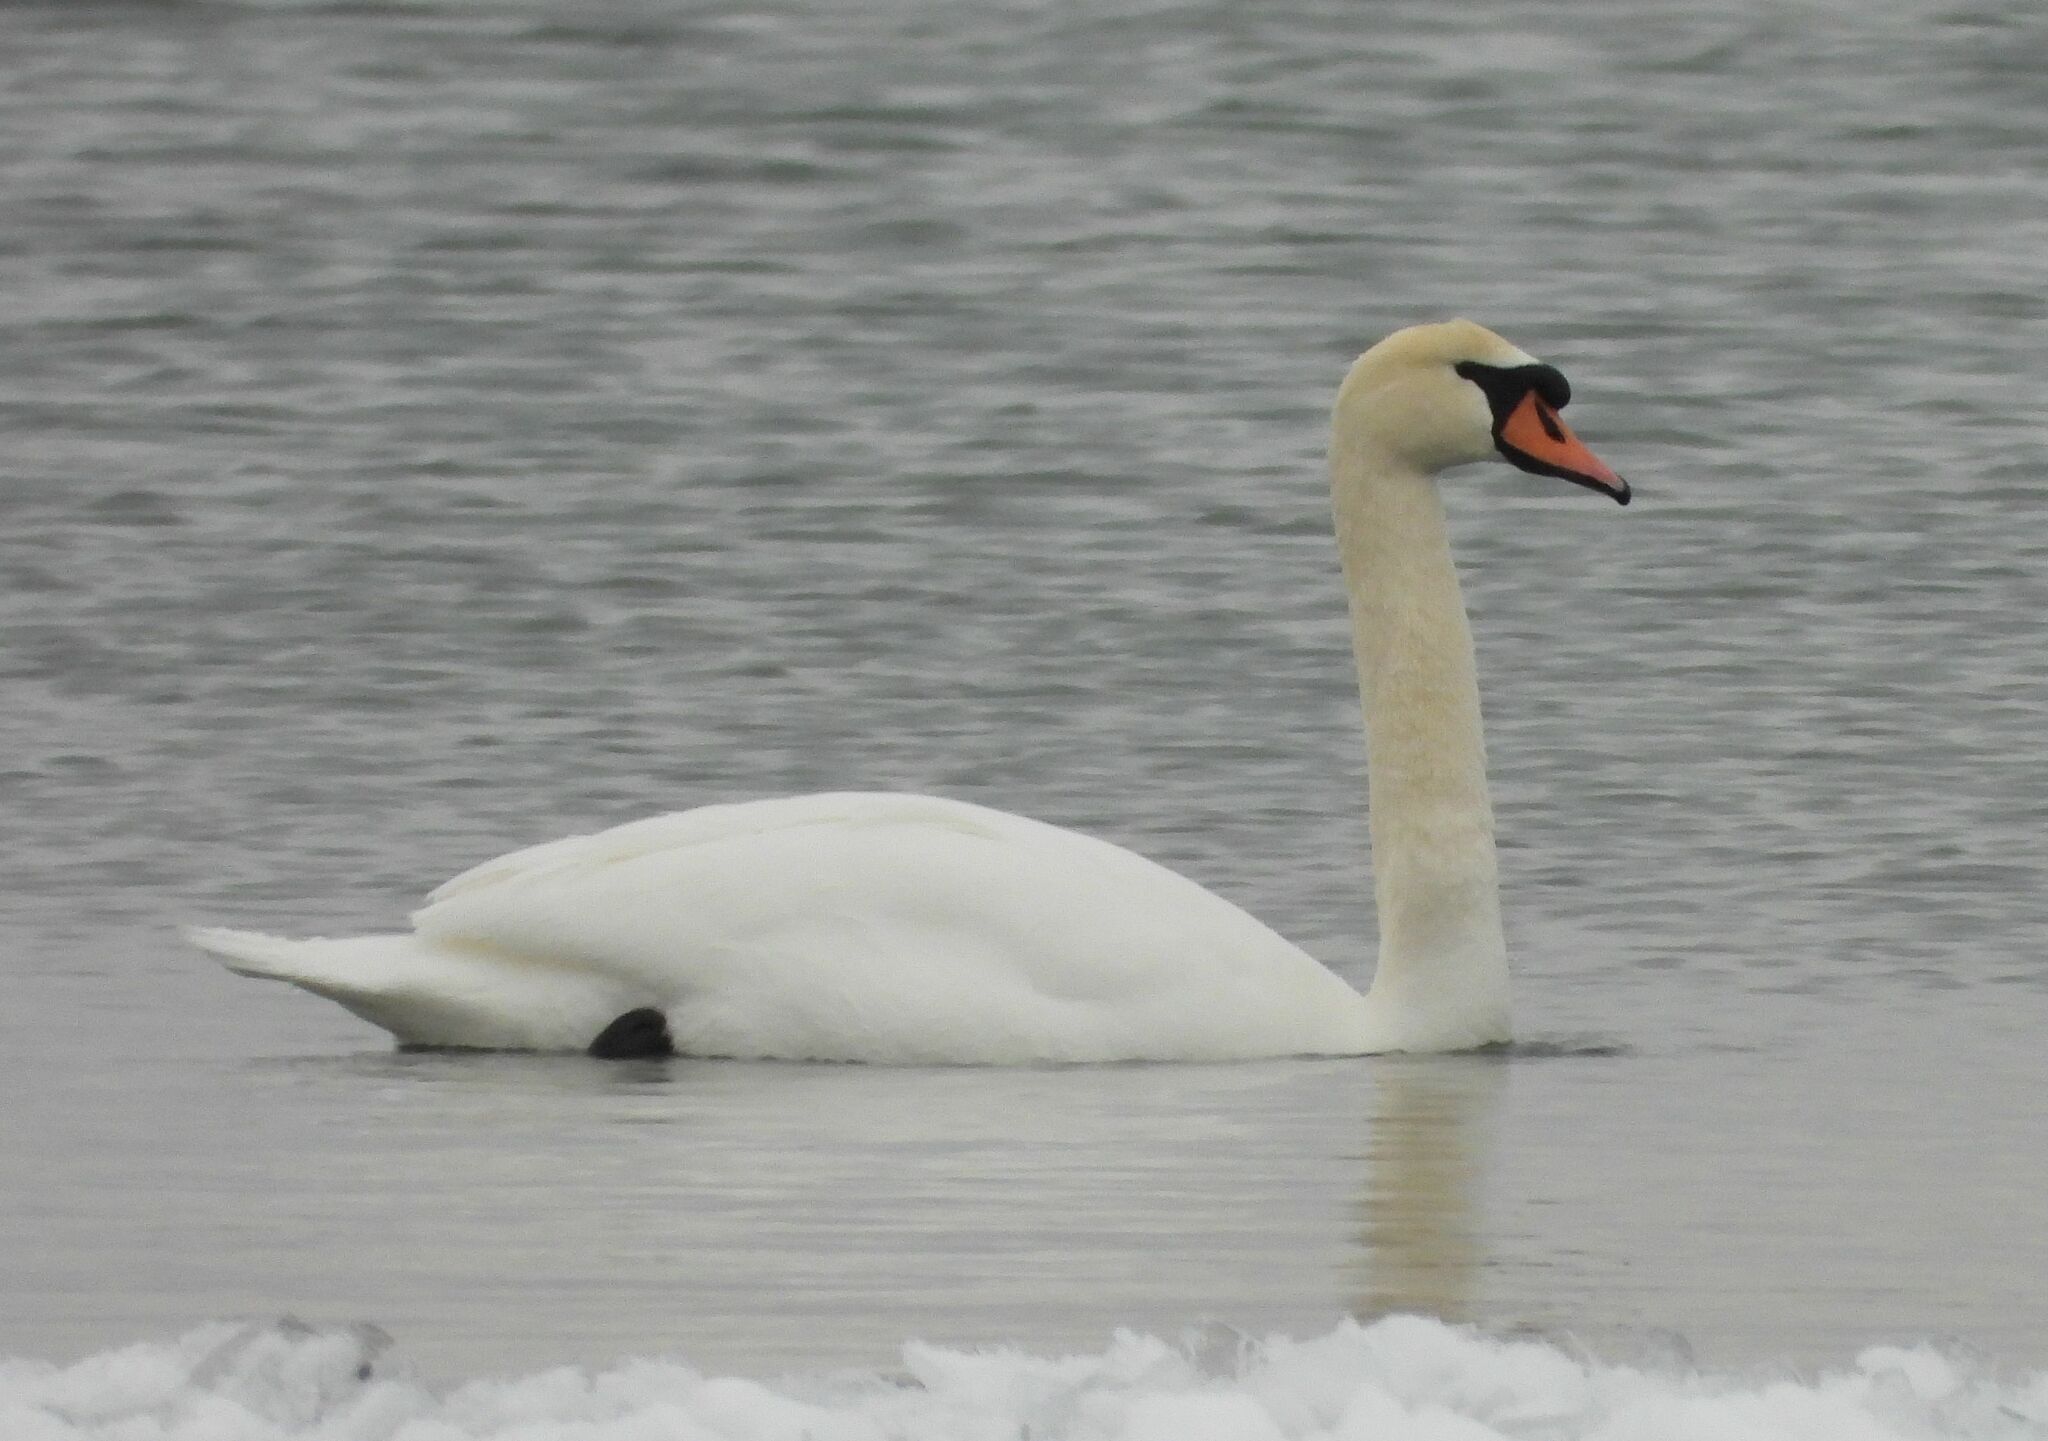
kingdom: Animalia
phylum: Chordata
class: Aves
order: Anseriformes
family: Anatidae
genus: Cygnus
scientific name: Cygnus olor
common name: Mute swan
